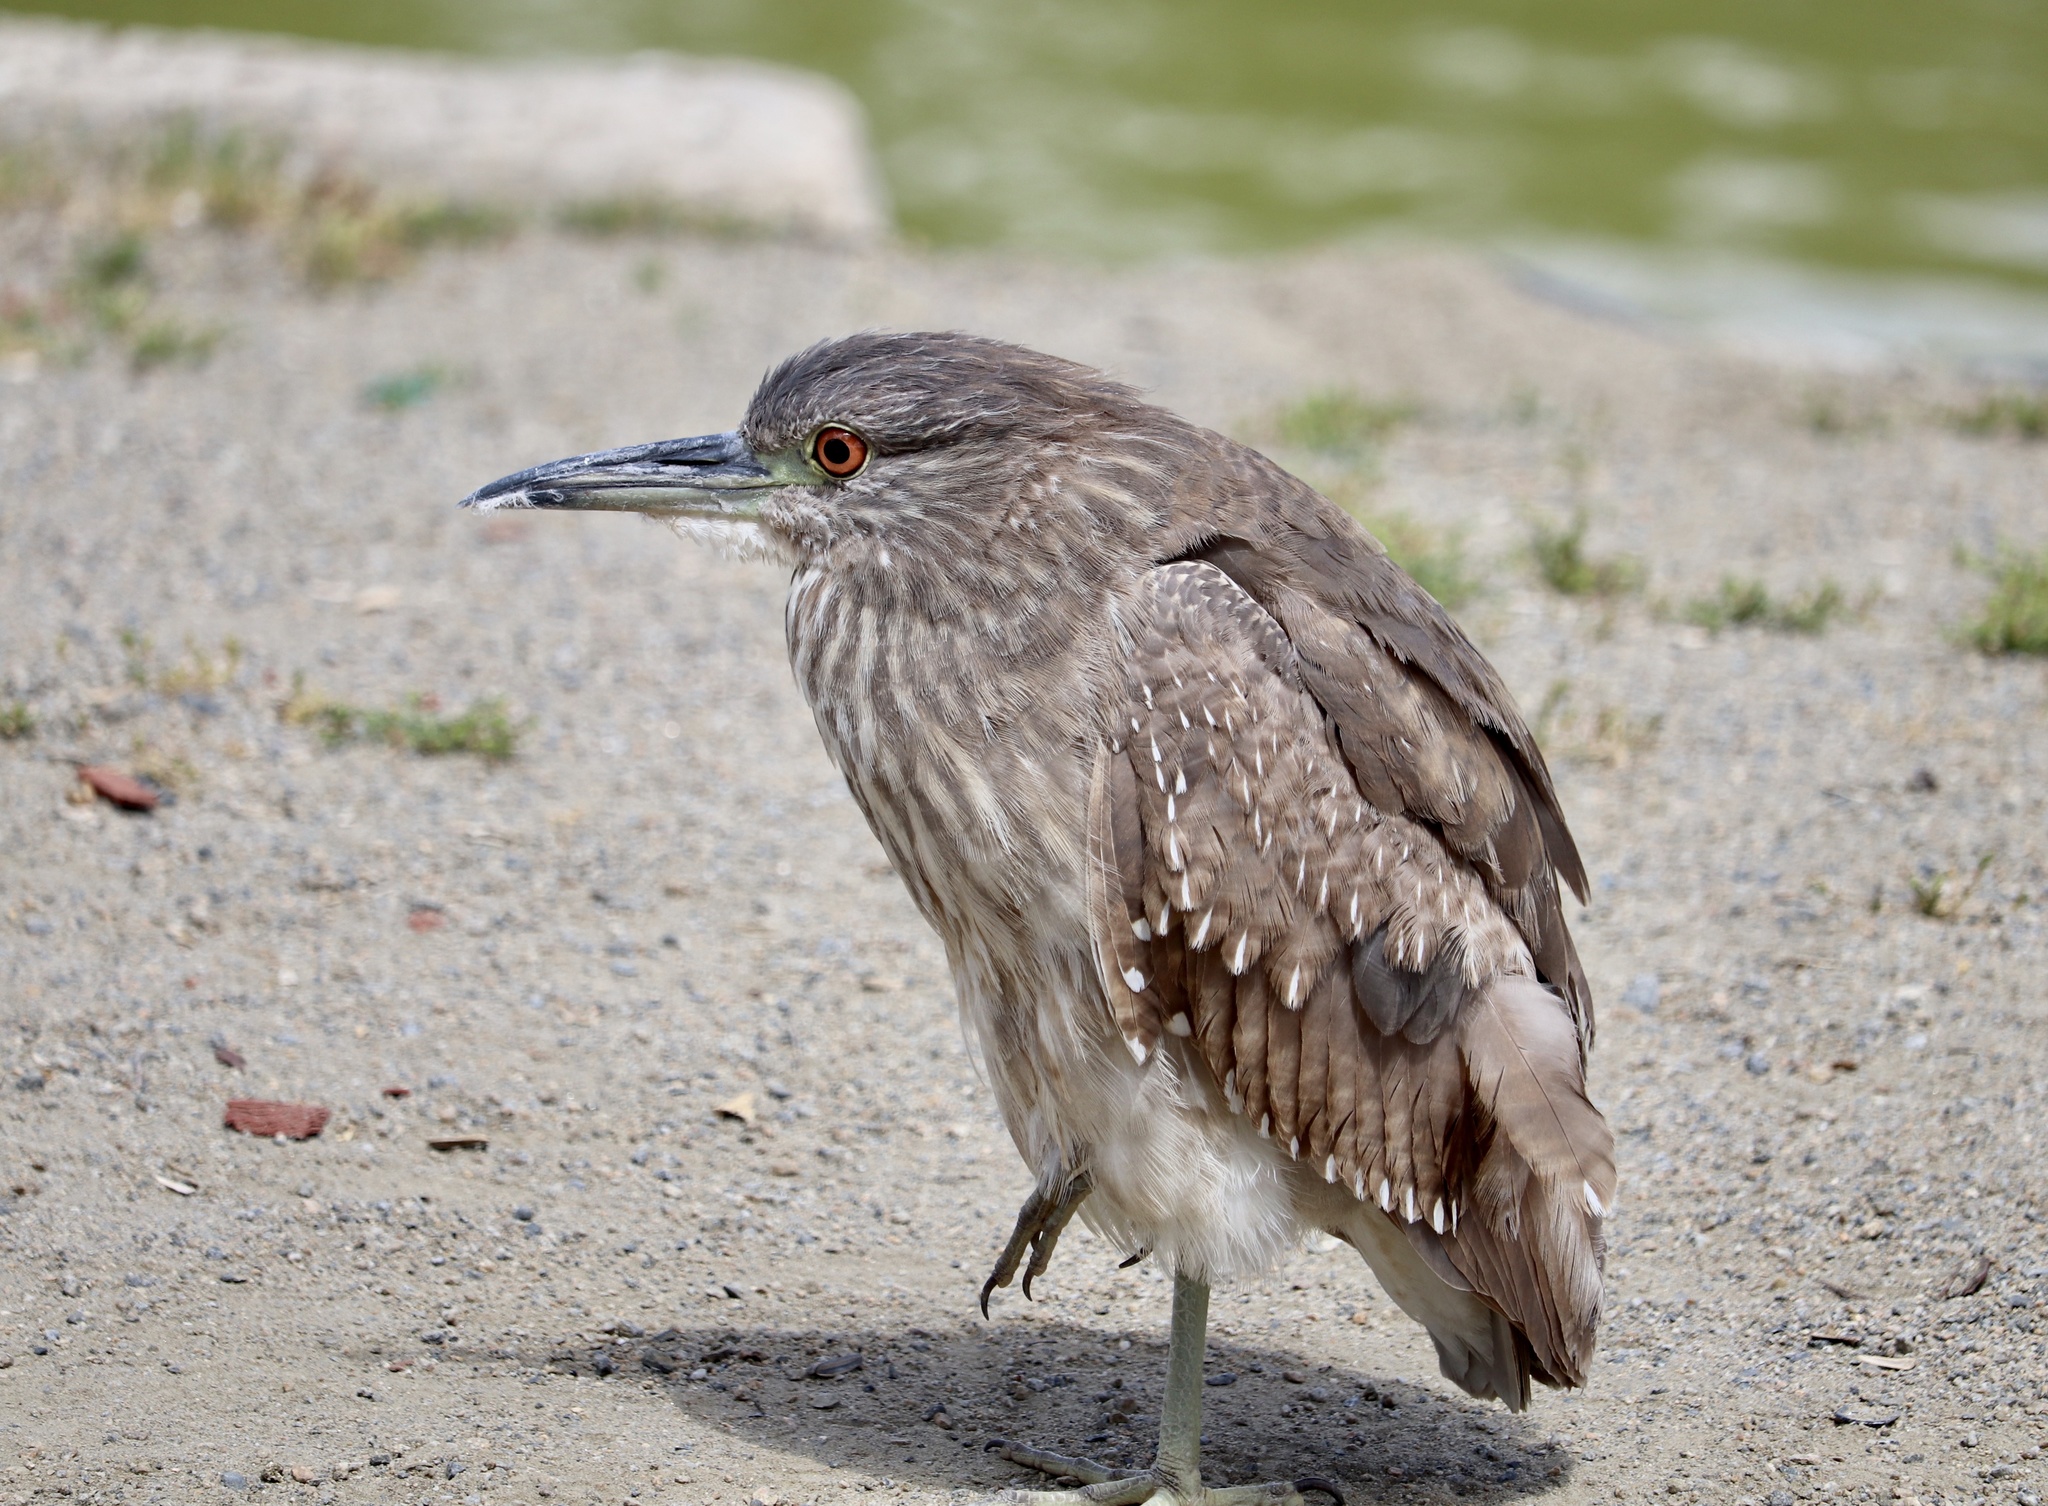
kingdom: Animalia
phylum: Chordata
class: Aves
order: Pelecaniformes
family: Ardeidae
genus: Nycticorax
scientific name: Nycticorax nycticorax
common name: Black-crowned night heron
